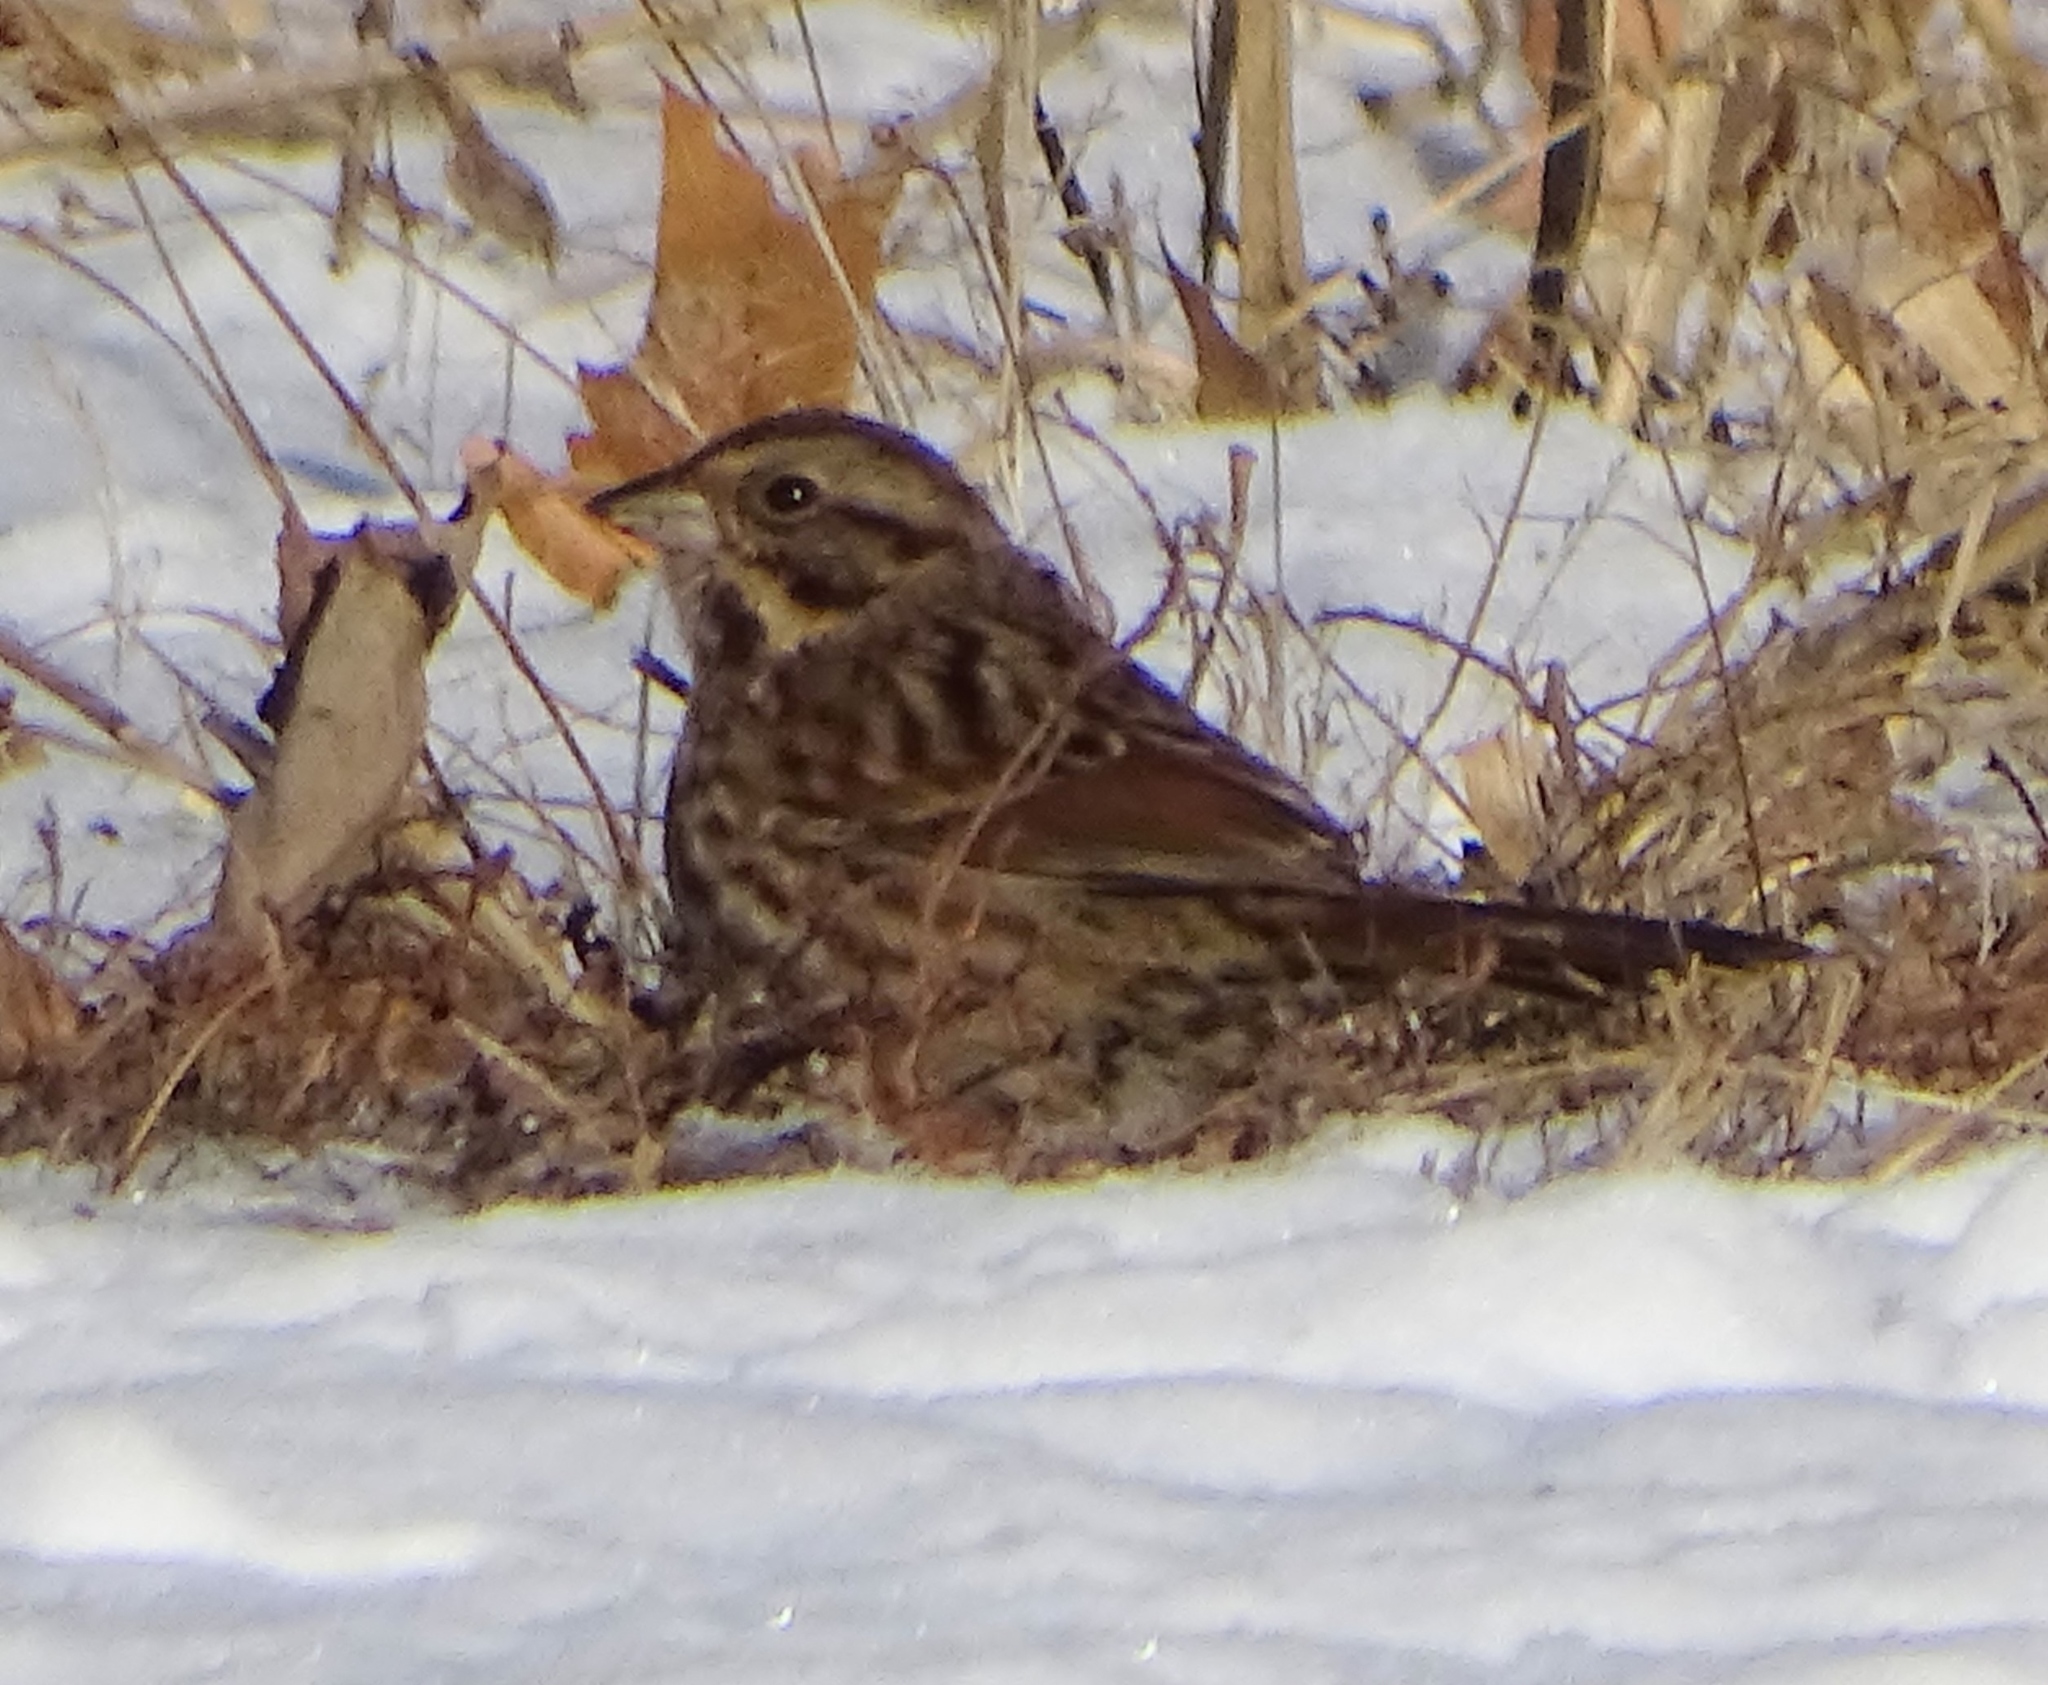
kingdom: Animalia
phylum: Chordata
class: Aves
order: Passeriformes
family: Passerellidae
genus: Melospiza
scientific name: Melospiza melodia
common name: Song sparrow
